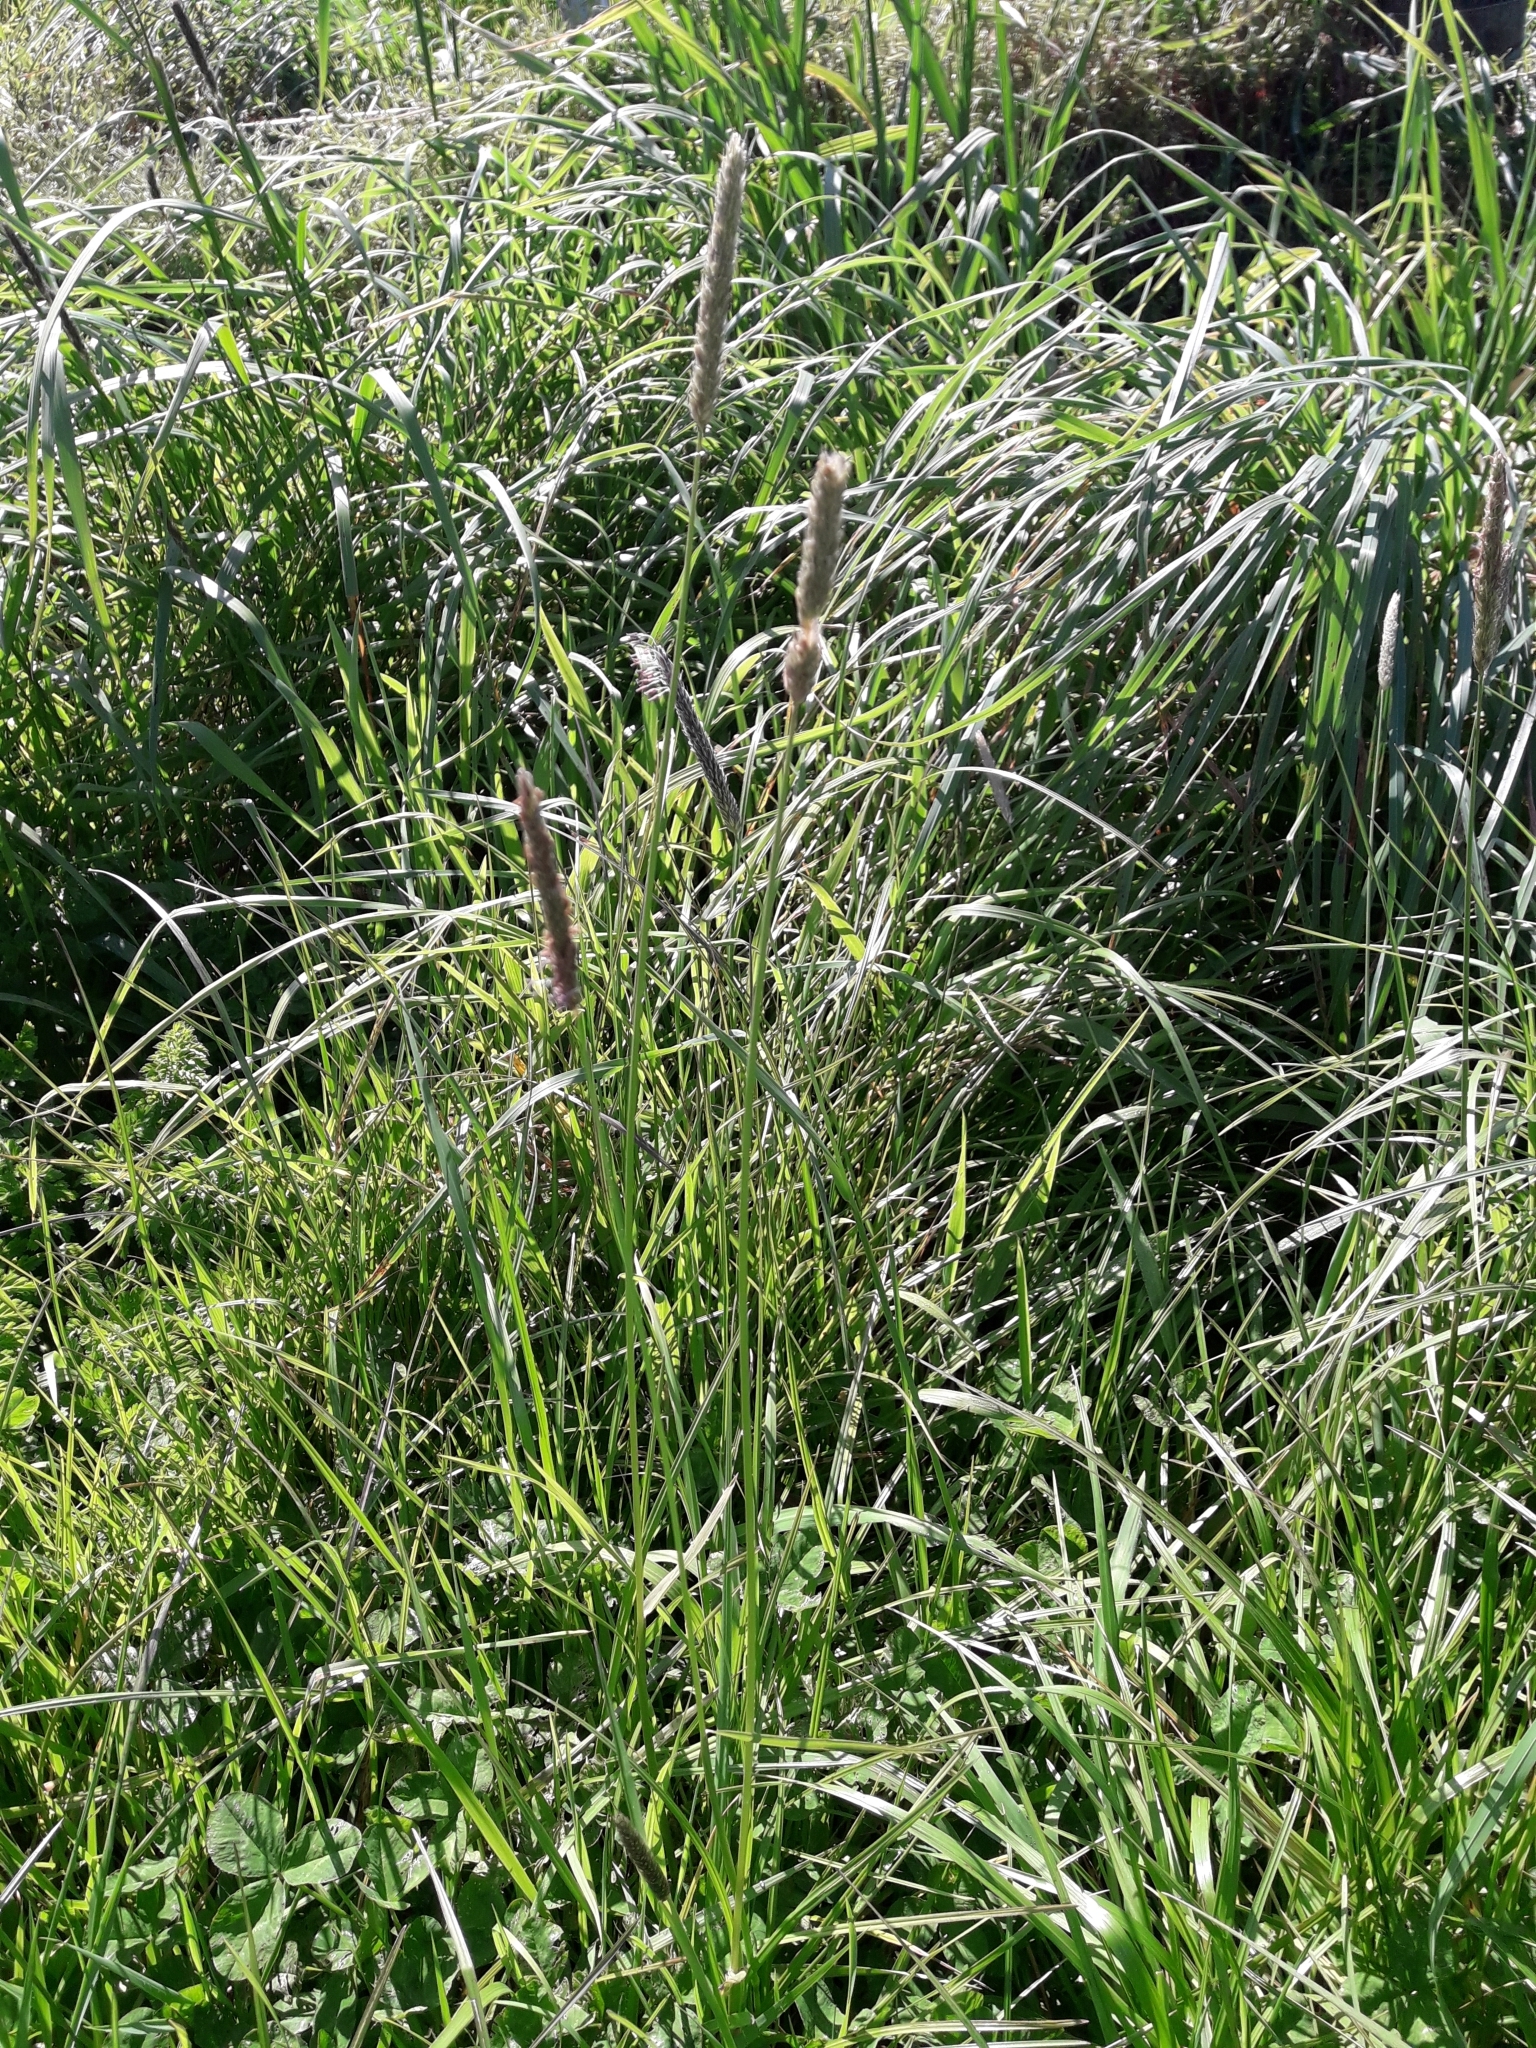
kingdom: Plantae
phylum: Tracheophyta
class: Liliopsida
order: Poales
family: Poaceae
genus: Alopecurus
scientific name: Alopecurus geniculatus
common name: Water foxtail
